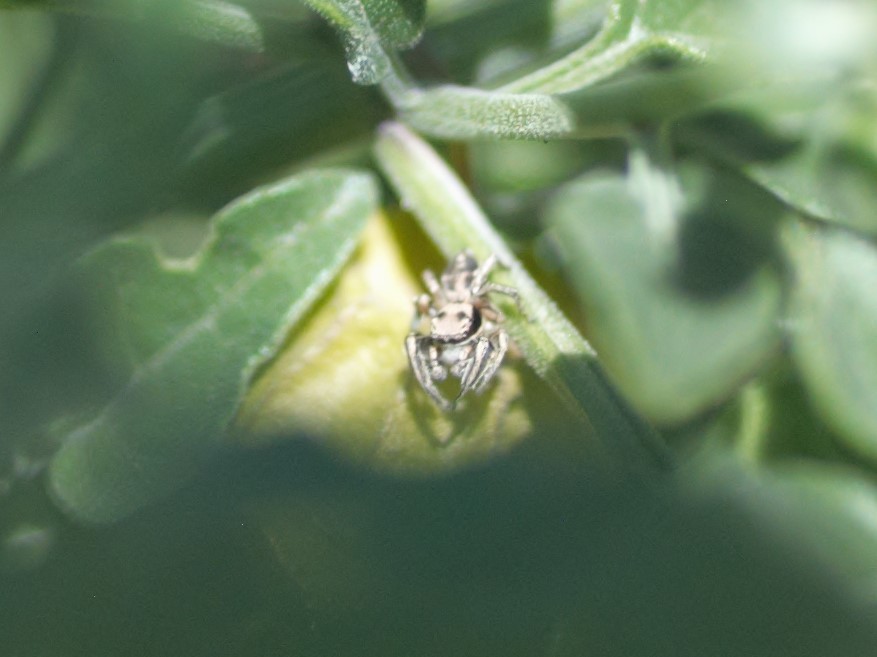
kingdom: Animalia
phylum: Arthropoda
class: Arachnida
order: Araneae
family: Salticidae
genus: Habronattus
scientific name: Habronattus klauseri
